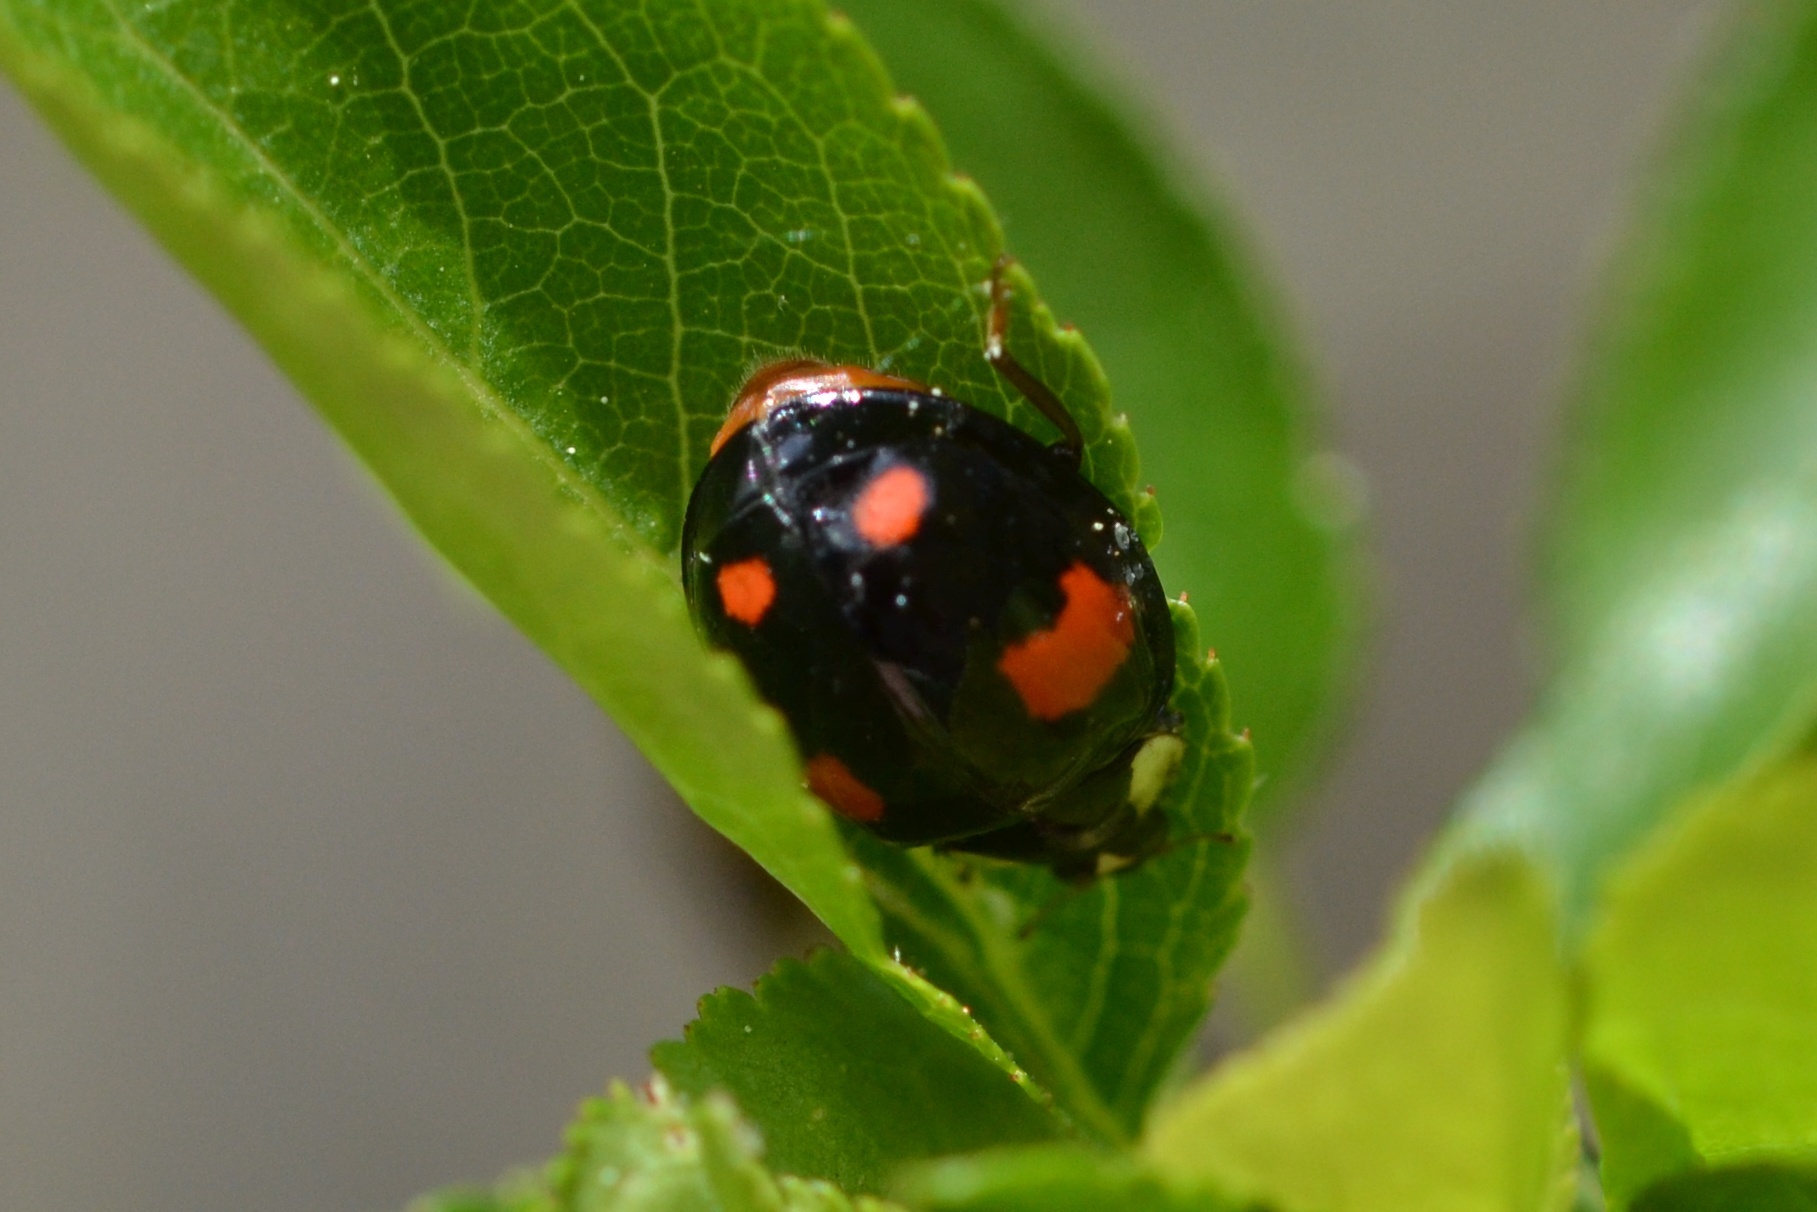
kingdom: Animalia
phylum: Arthropoda
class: Insecta
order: Coleoptera
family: Coccinellidae
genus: Harmonia
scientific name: Harmonia axyridis
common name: Harlequin ladybird
